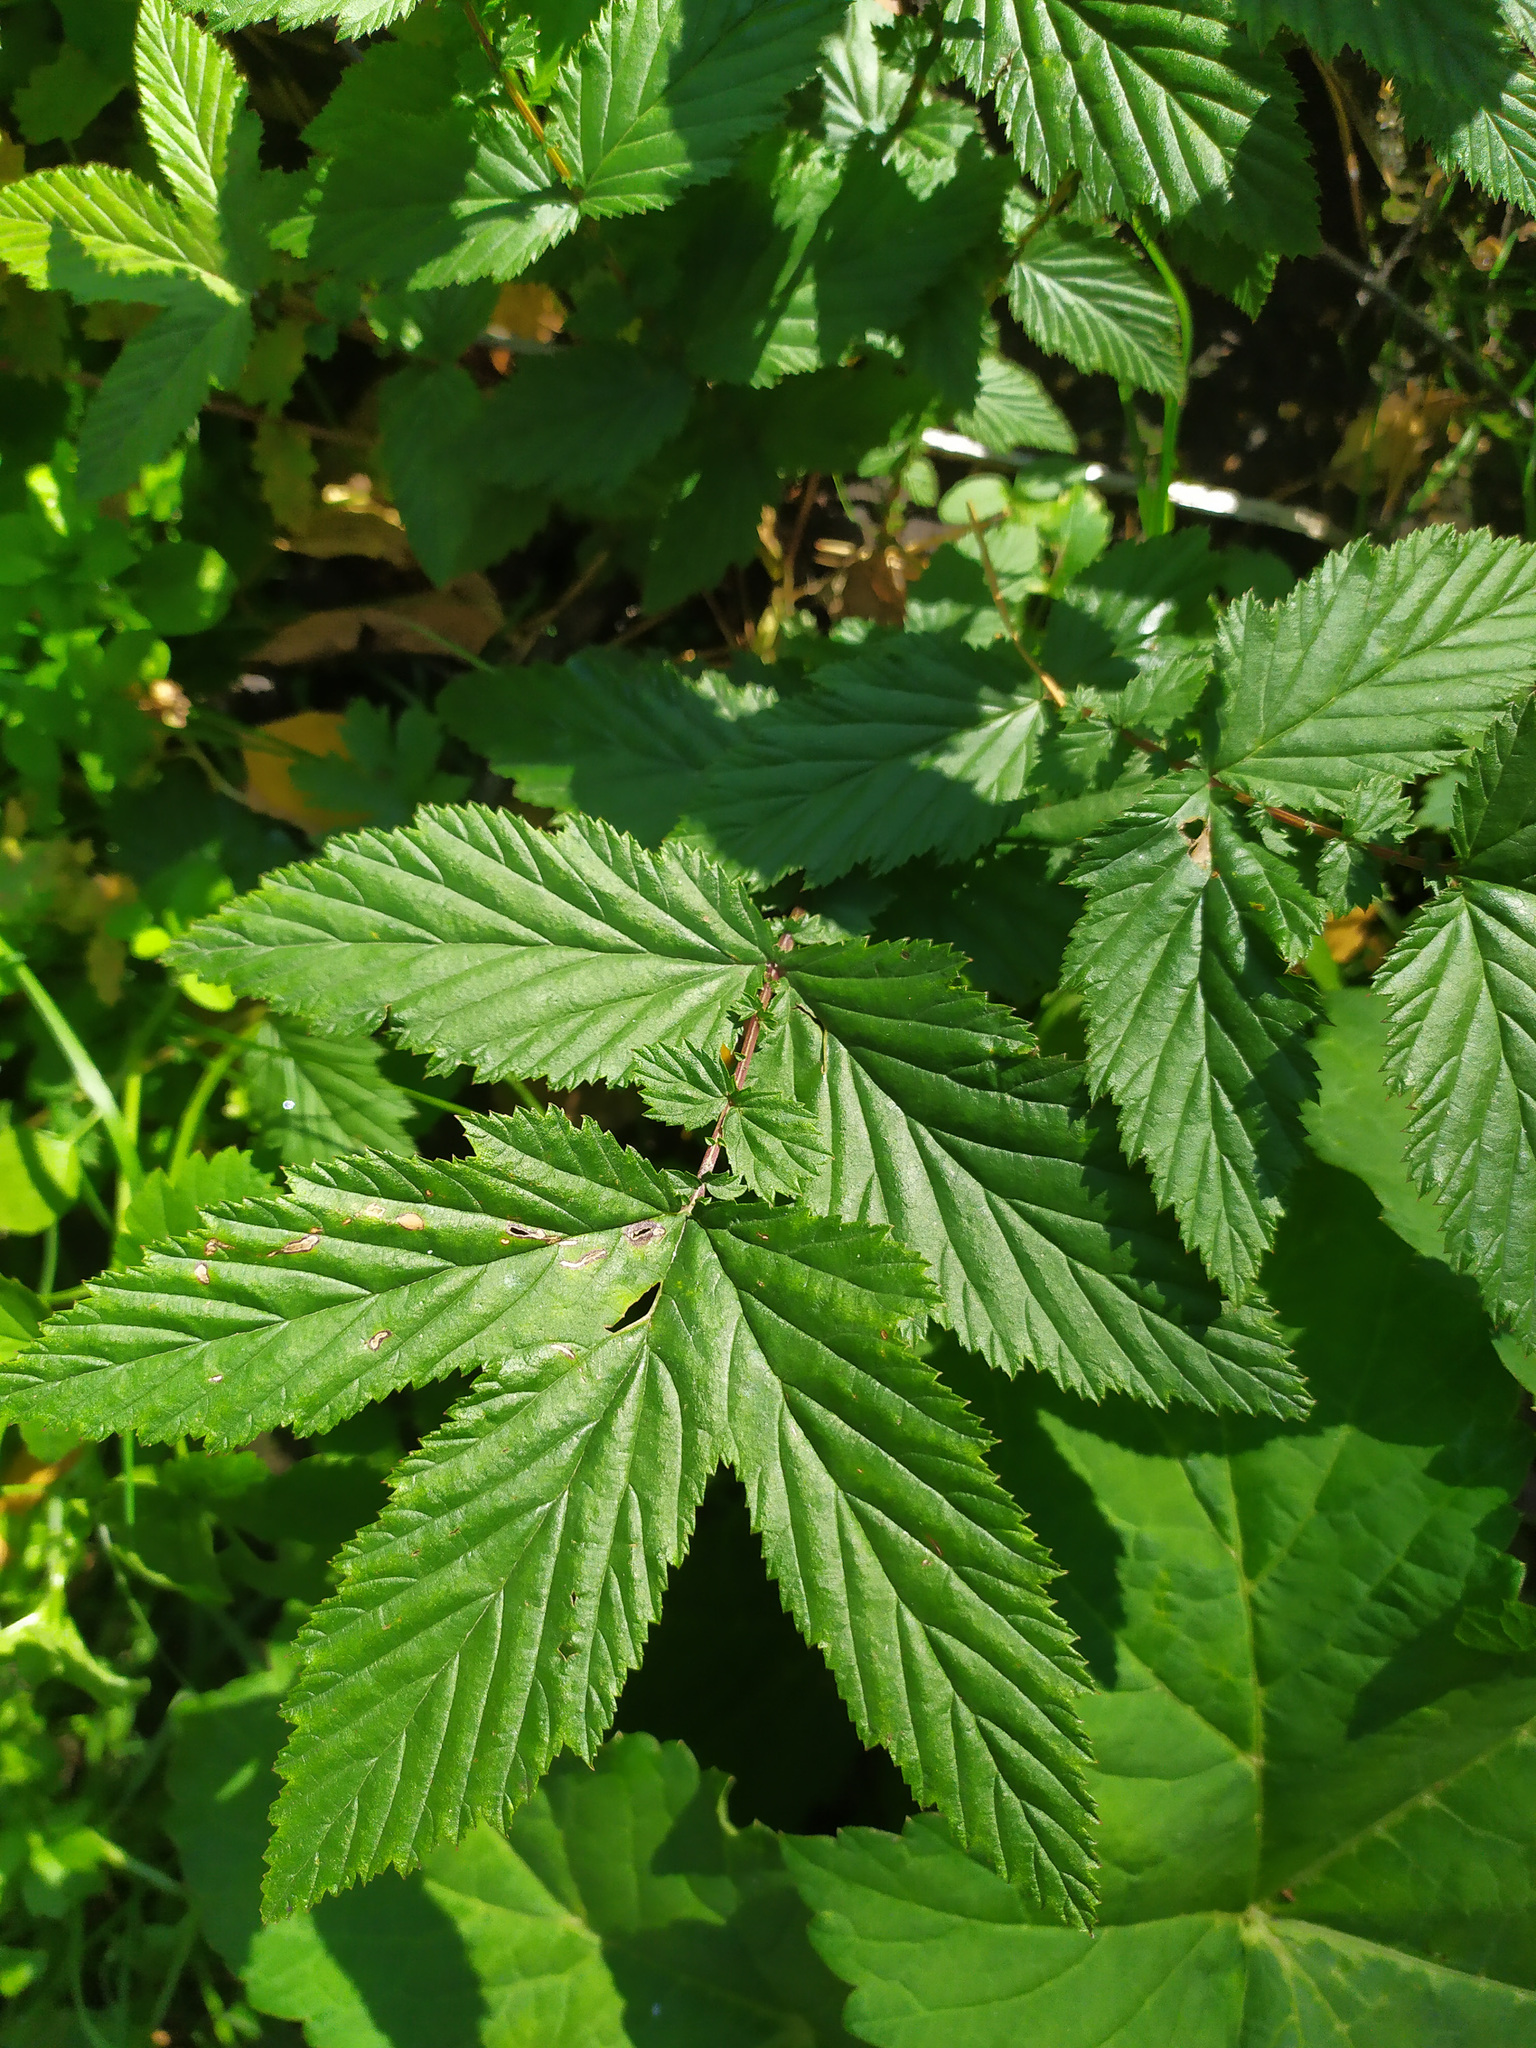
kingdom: Plantae
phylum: Tracheophyta
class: Magnoliopsida
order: Rosales
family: Rosaceae
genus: Filipendula
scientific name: Filipendula ulmaria
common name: Meadowsweet
